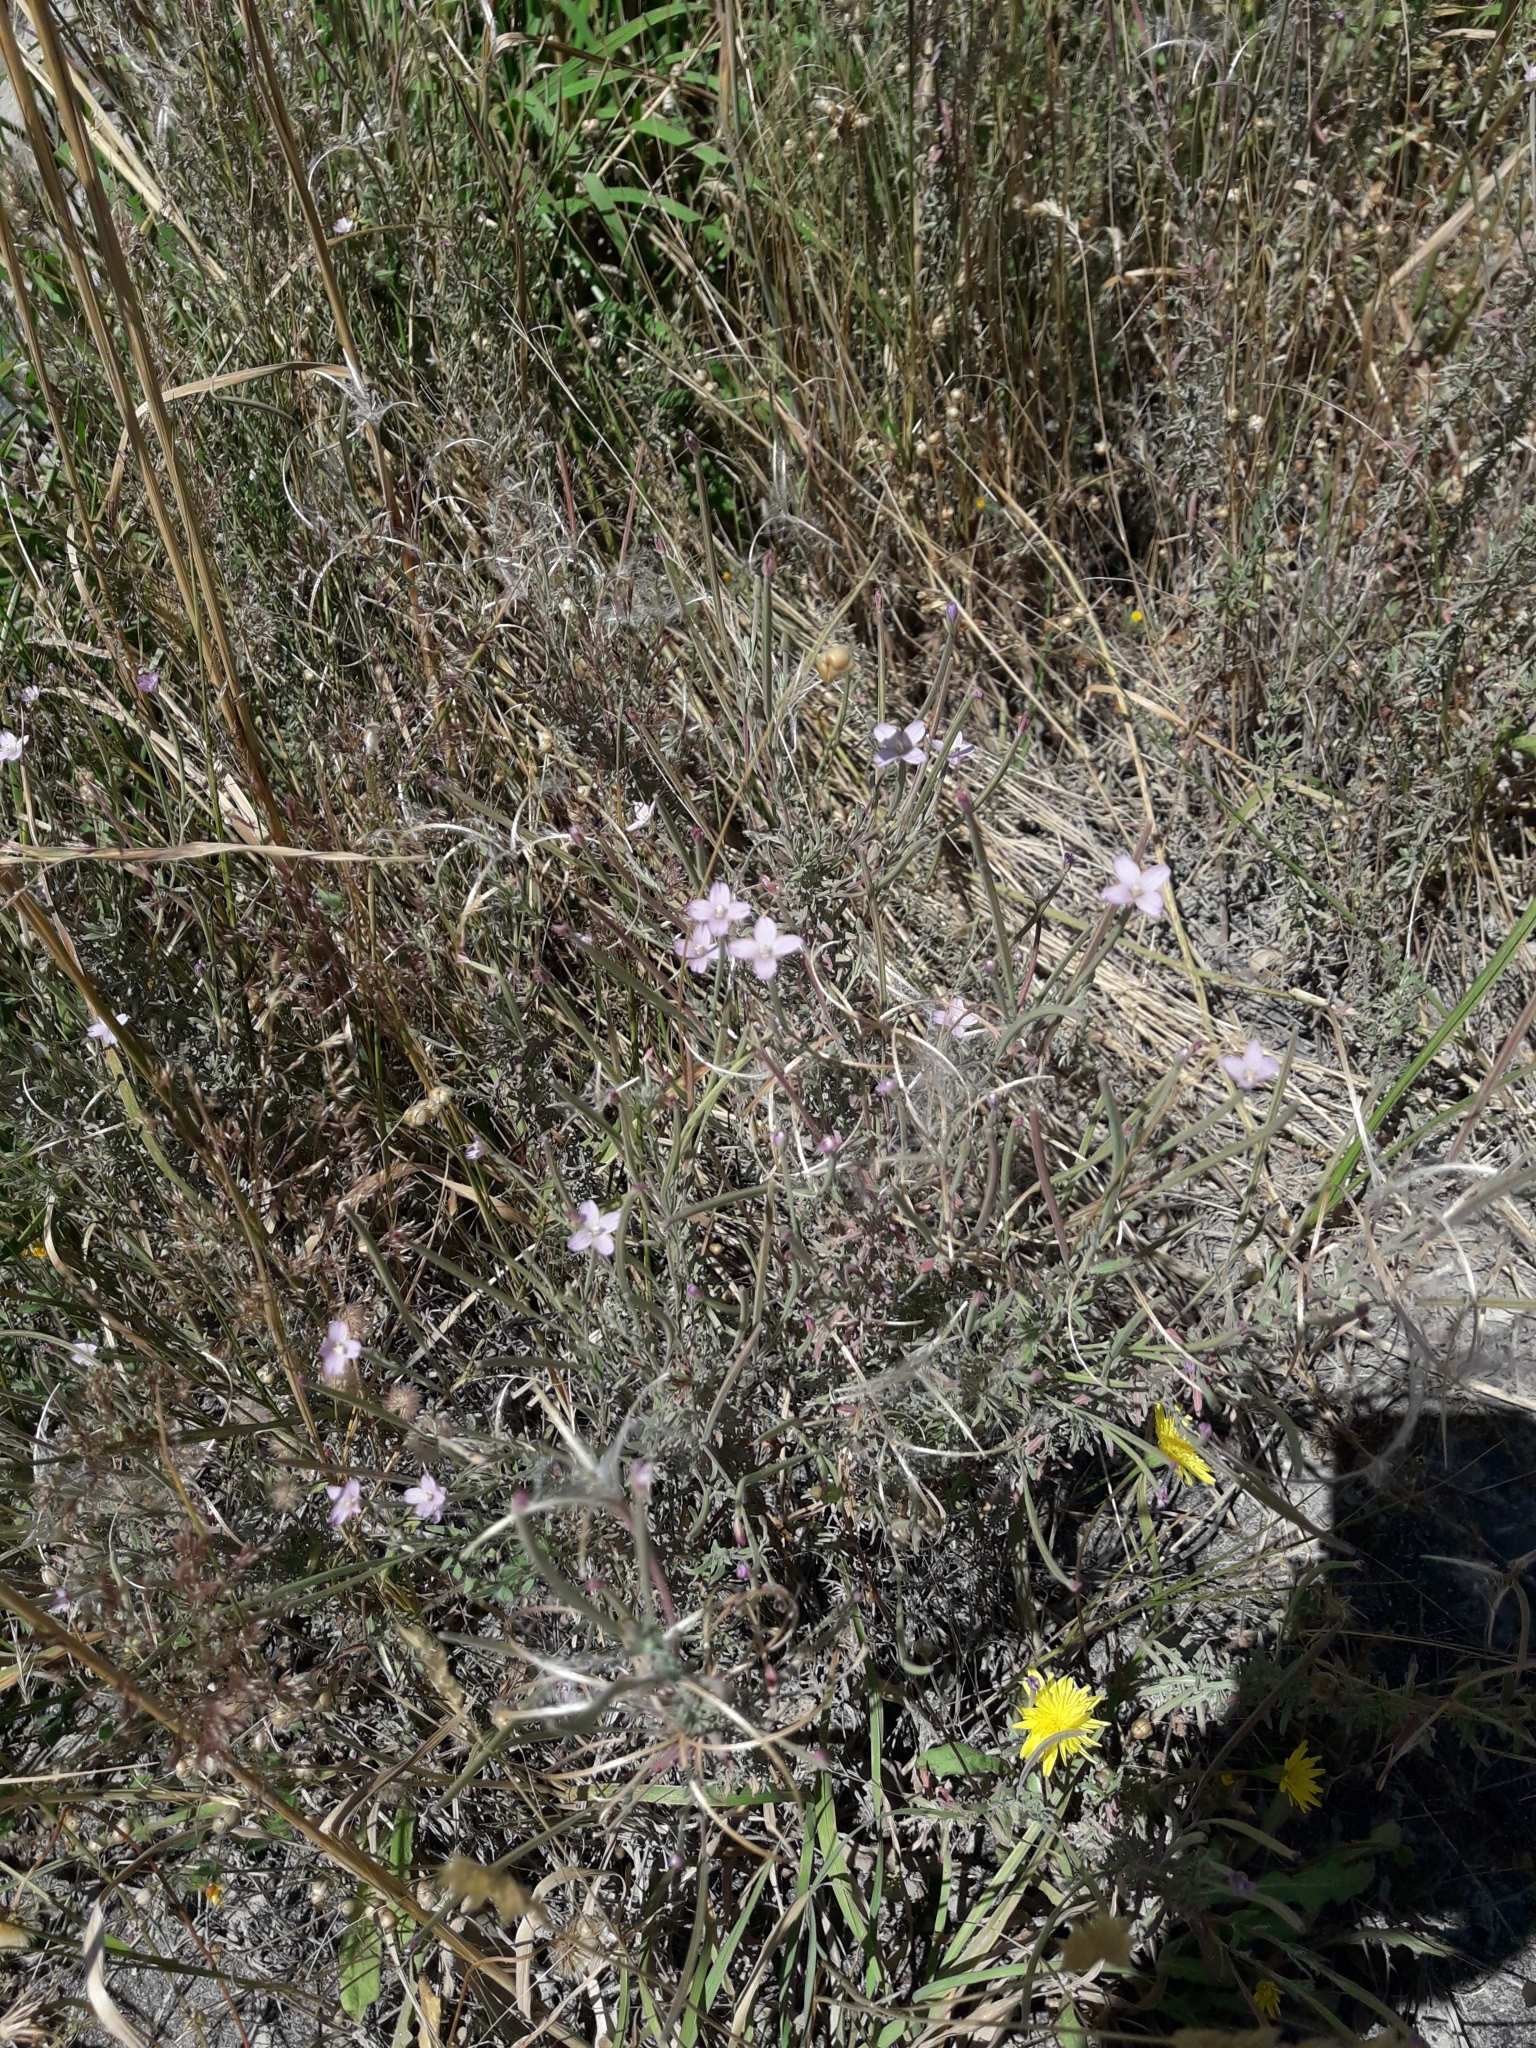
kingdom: Plantae
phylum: Tracheophyta
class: Magnoliopsida
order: Myrtales
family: Onagraceae
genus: Epilobium
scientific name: Epilobium billardierianum
